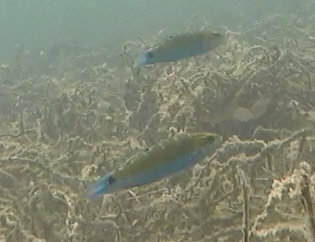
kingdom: Animalia
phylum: Chordata
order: Perciformes
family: Labridae
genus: Thalassoma
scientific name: Thalassoma lunare
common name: Blue wrasse
